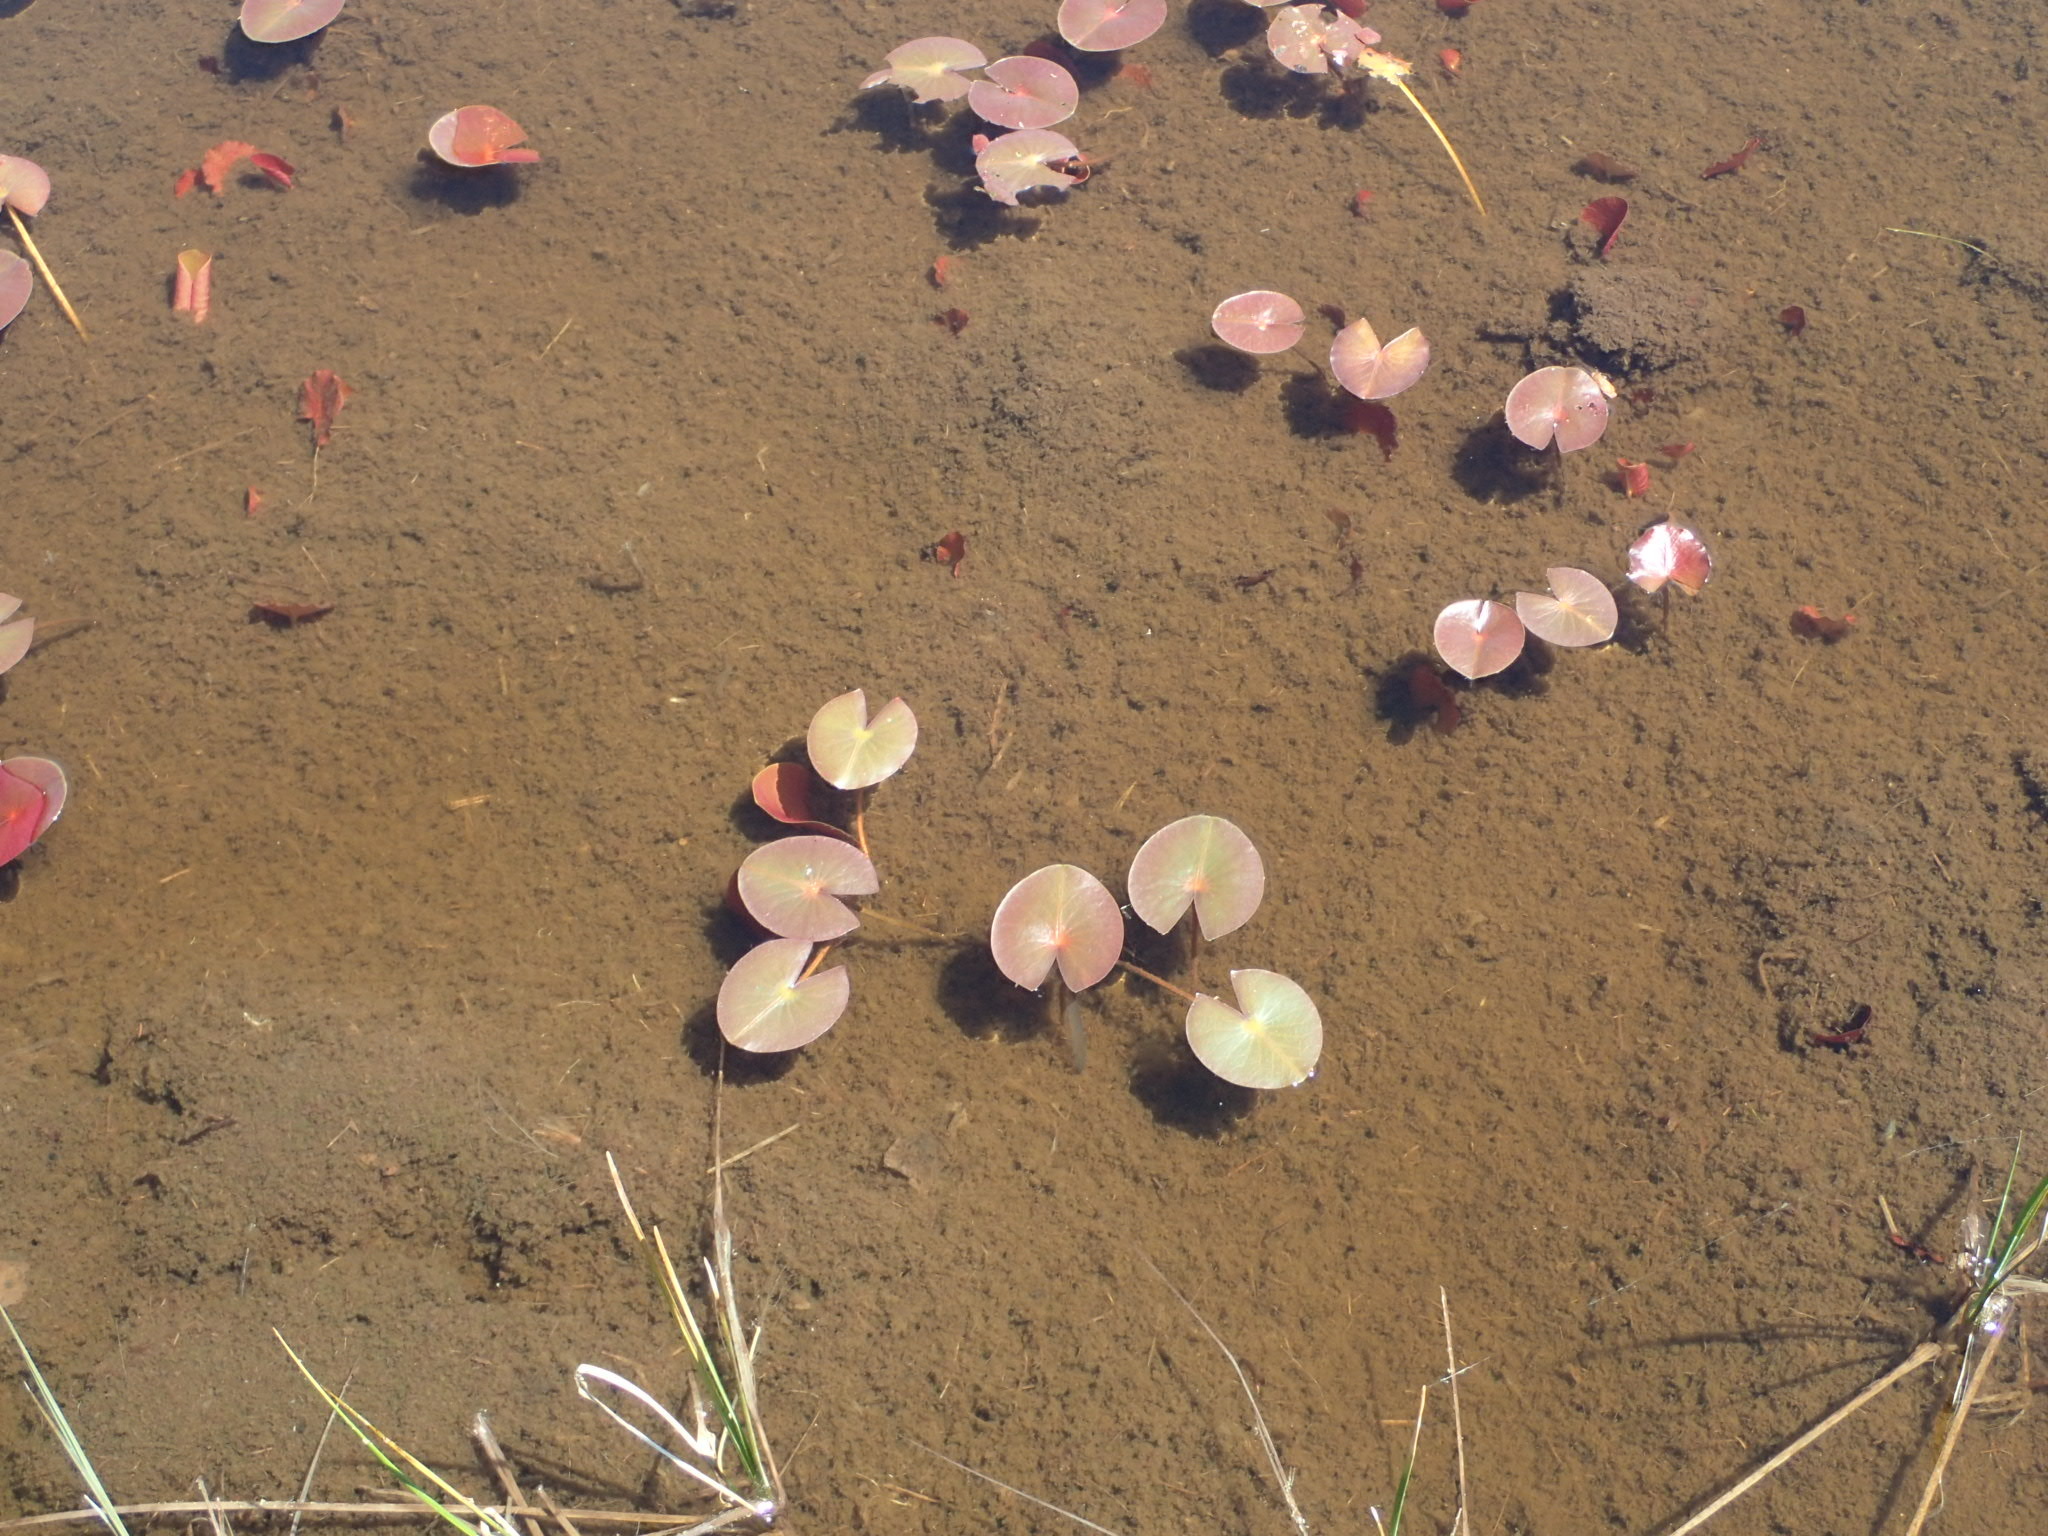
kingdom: Plantae
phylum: Tracheophyta
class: Magnoliopsida
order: Nymphaeales
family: Nymphaeaceae
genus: Nymphaea
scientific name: Nymphaea odorata
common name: Fragrant water-lily
